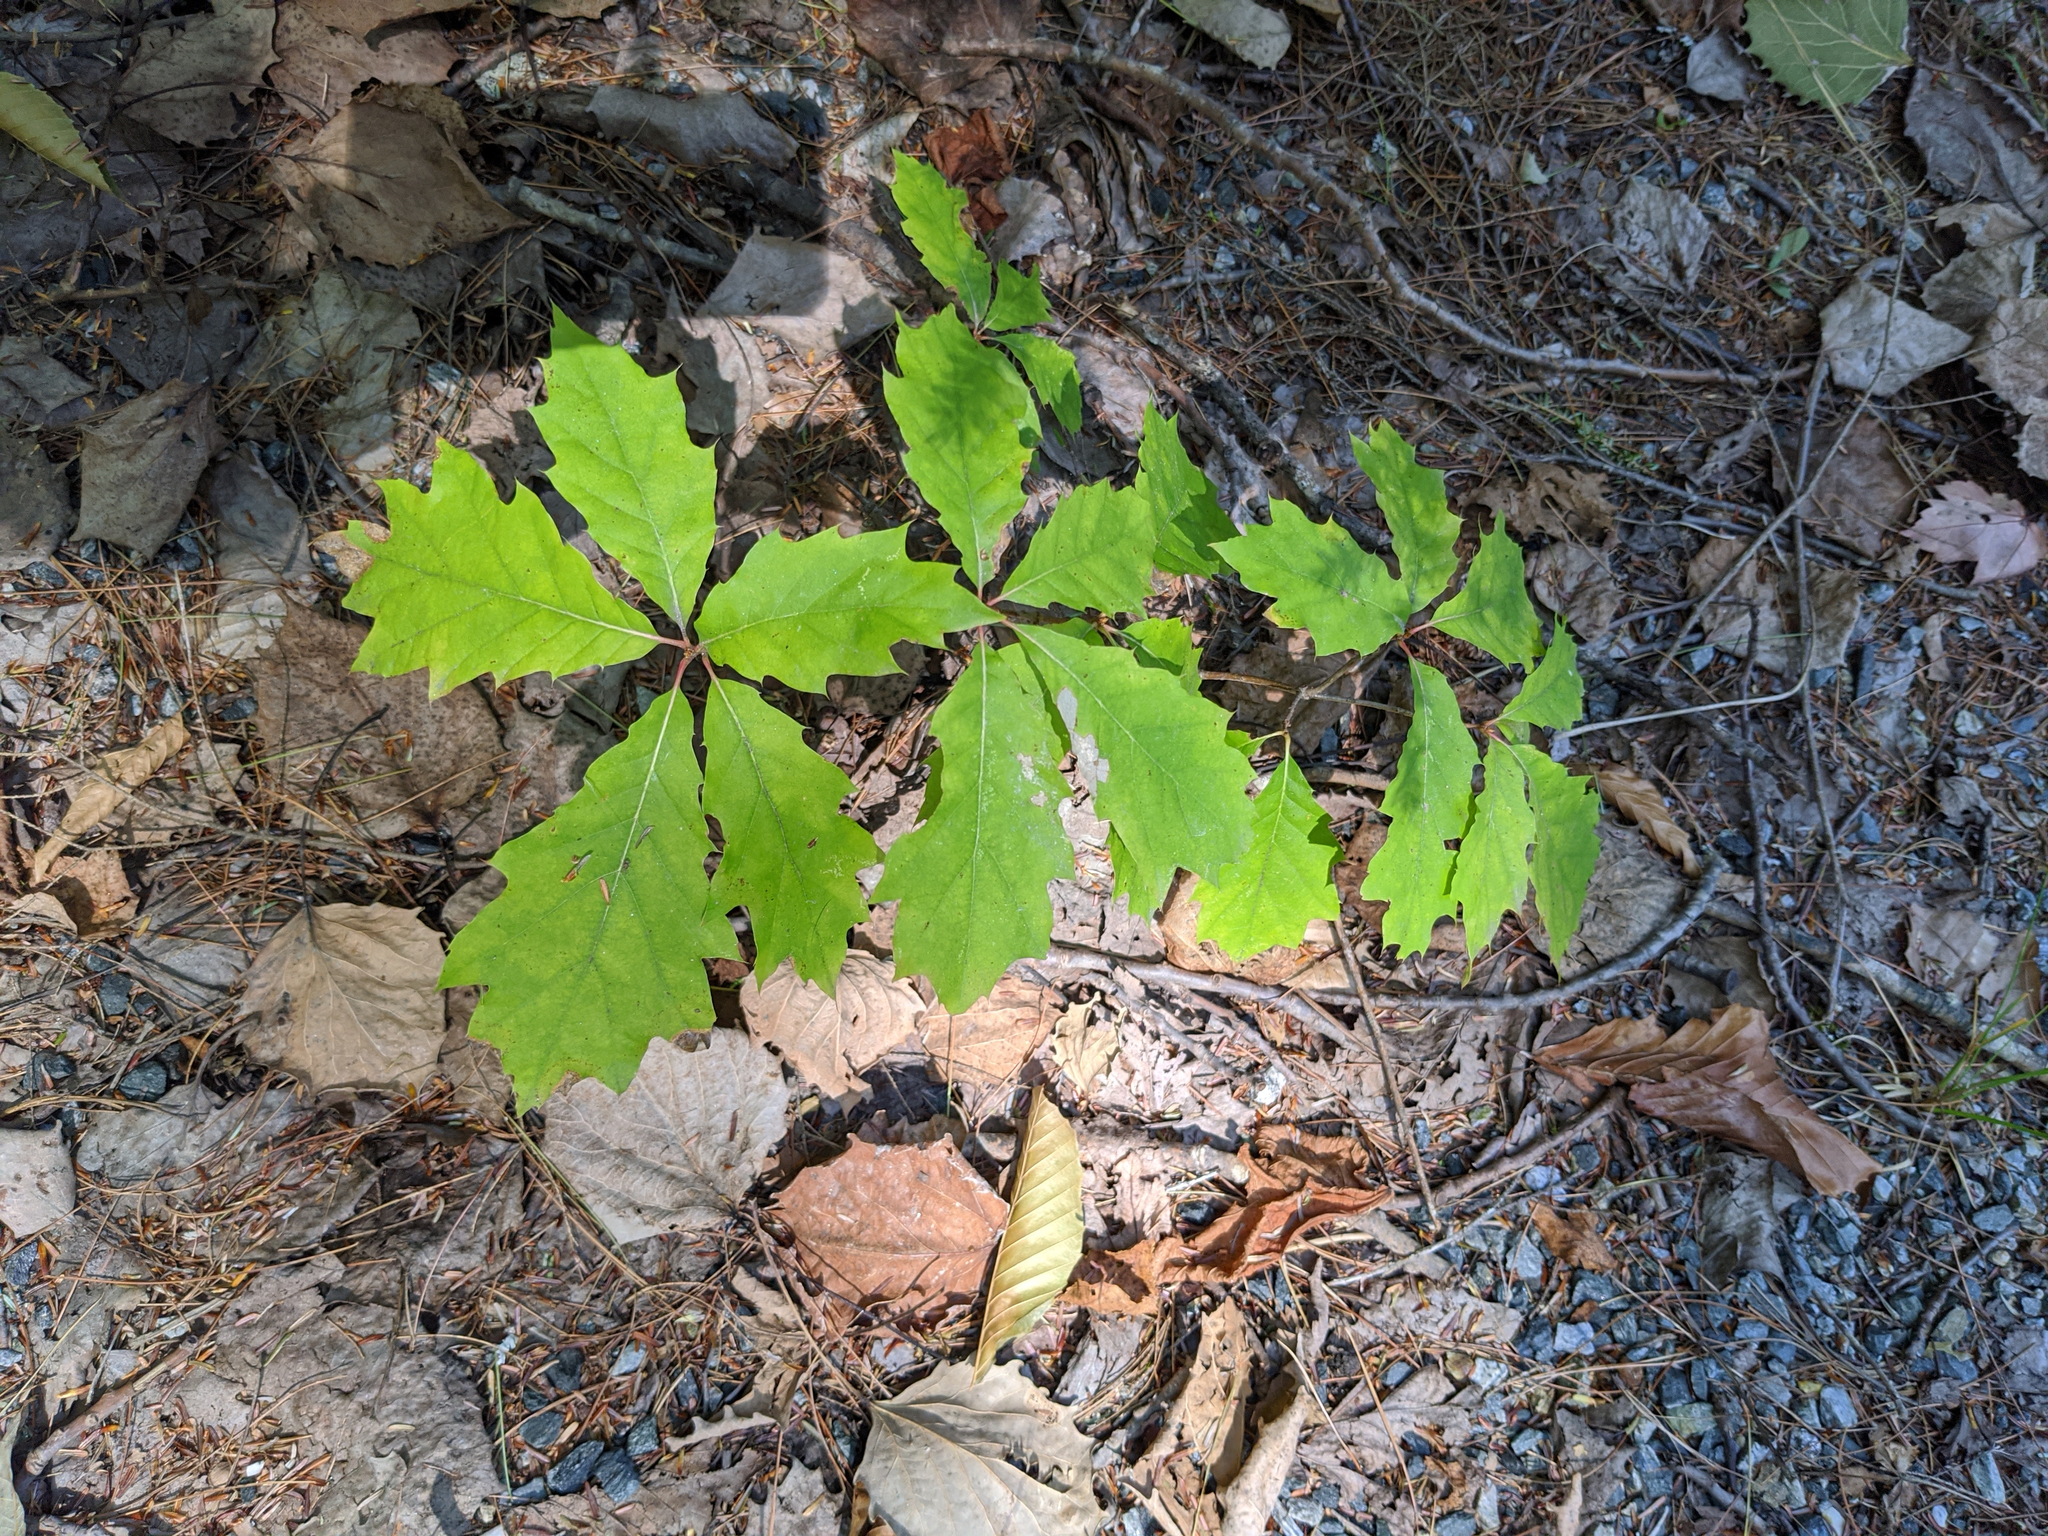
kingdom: Plantae
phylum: Tracheophyta
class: Magnoliopsida
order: Fagales
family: Fagaceae
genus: Quercus
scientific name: Quercus rubra
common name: Red oak
